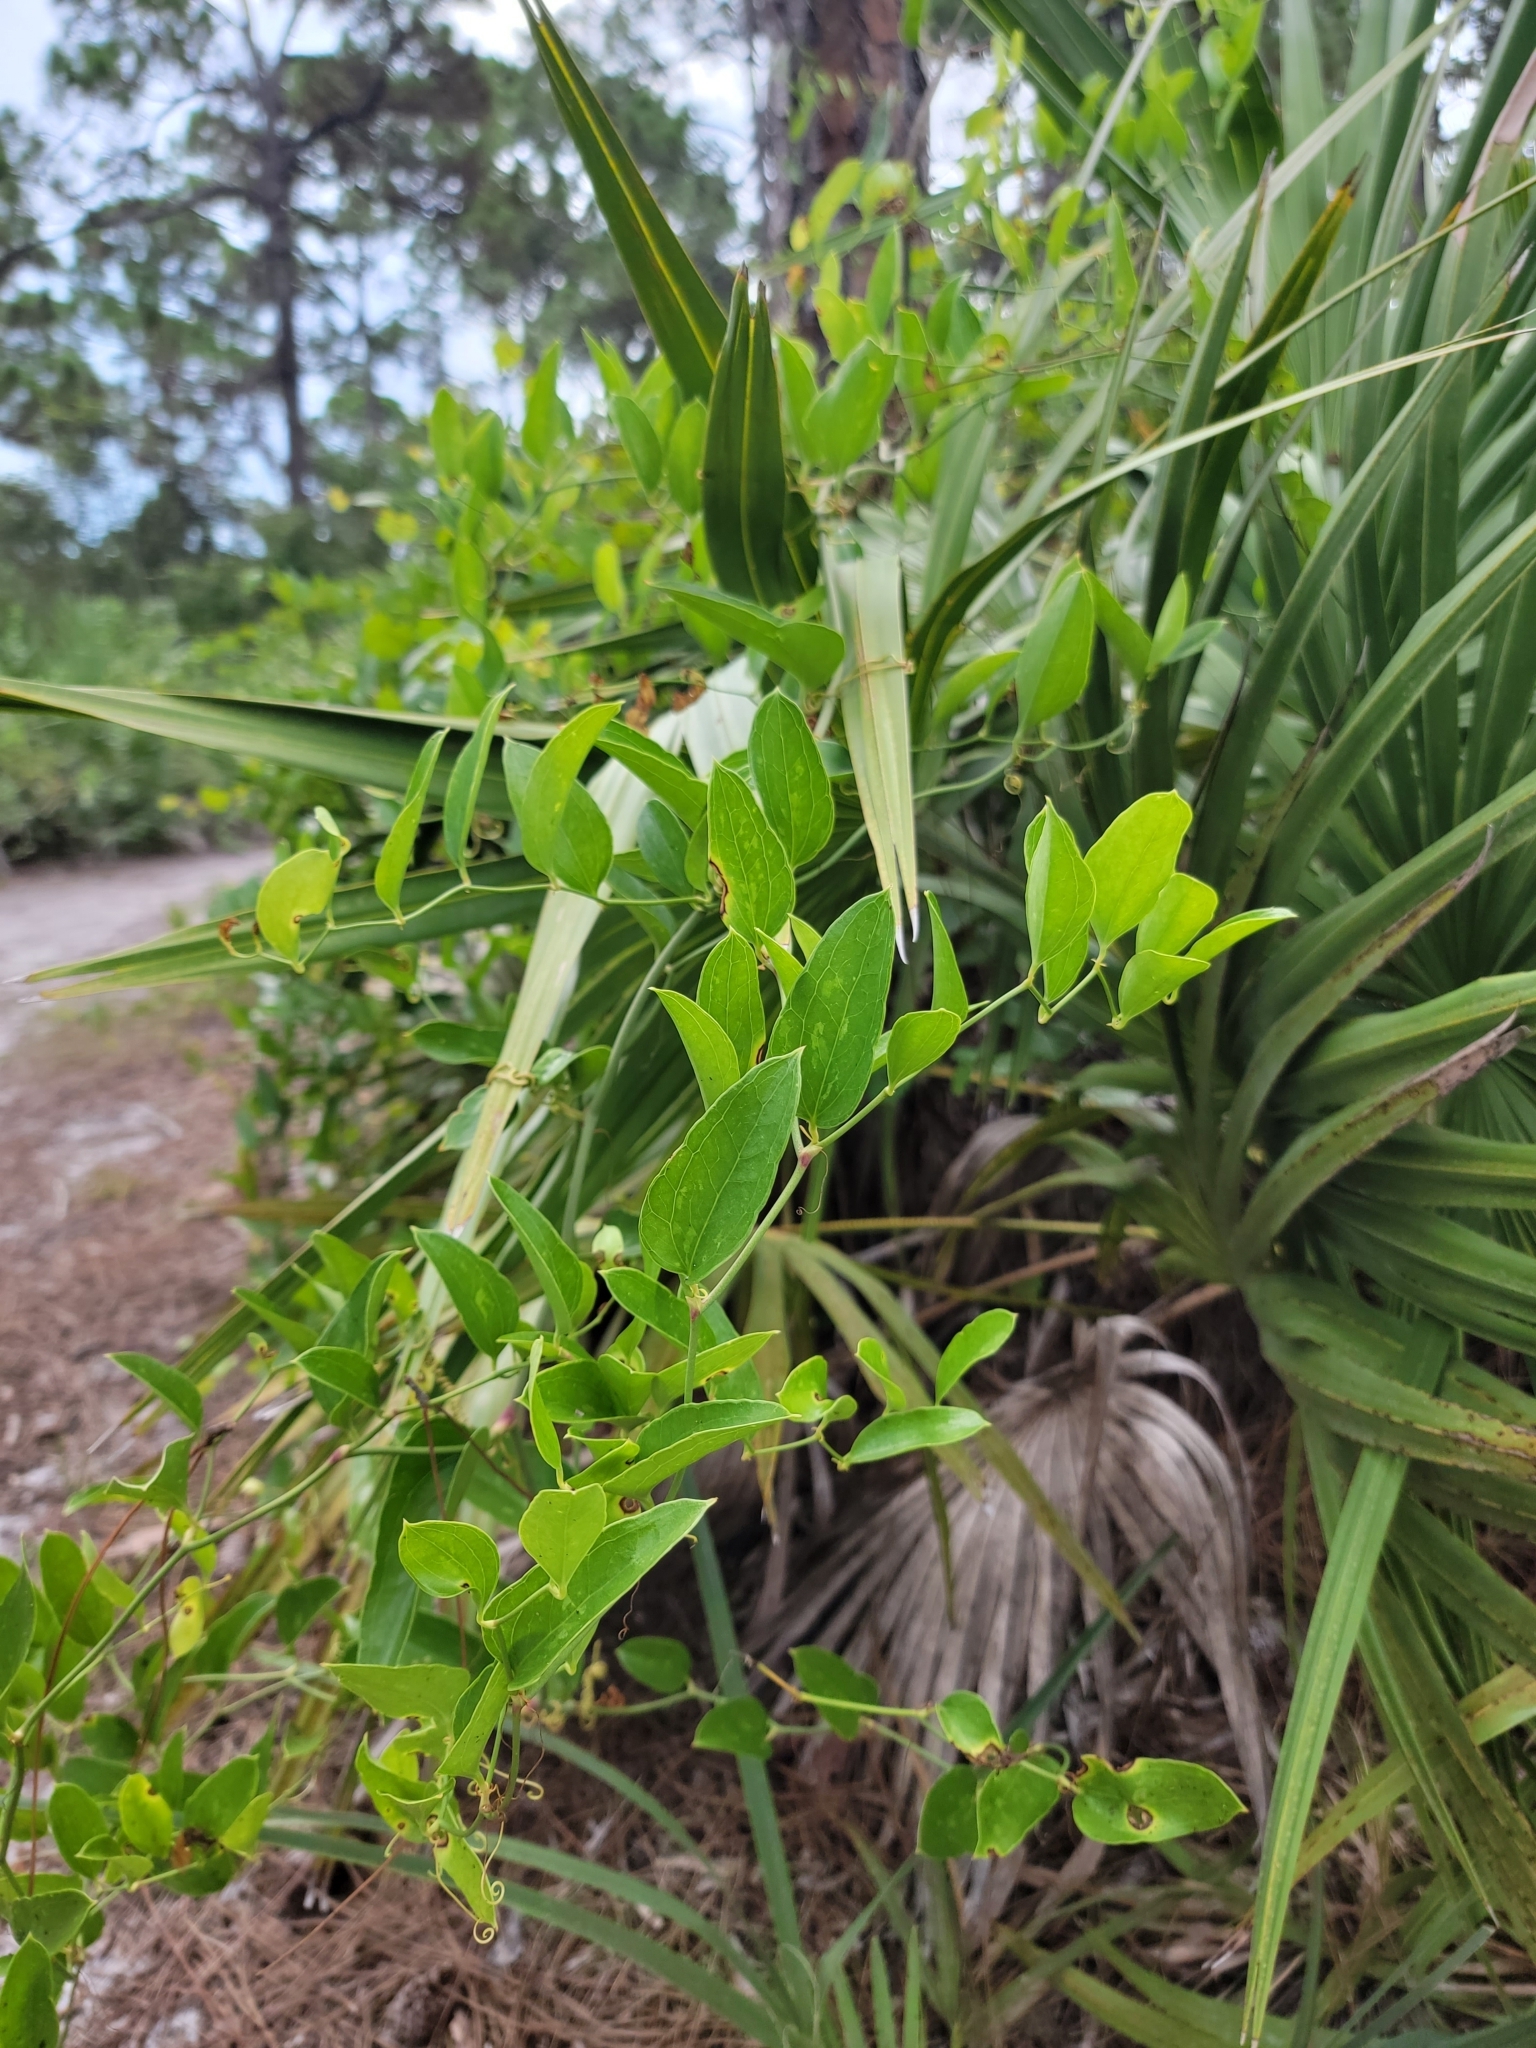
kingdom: Plantae
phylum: Tracheophyta
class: Liliopsida
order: Liliales
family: Smilacaceae
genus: Smilax
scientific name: Smilax auriculata
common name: Wild bamboo
